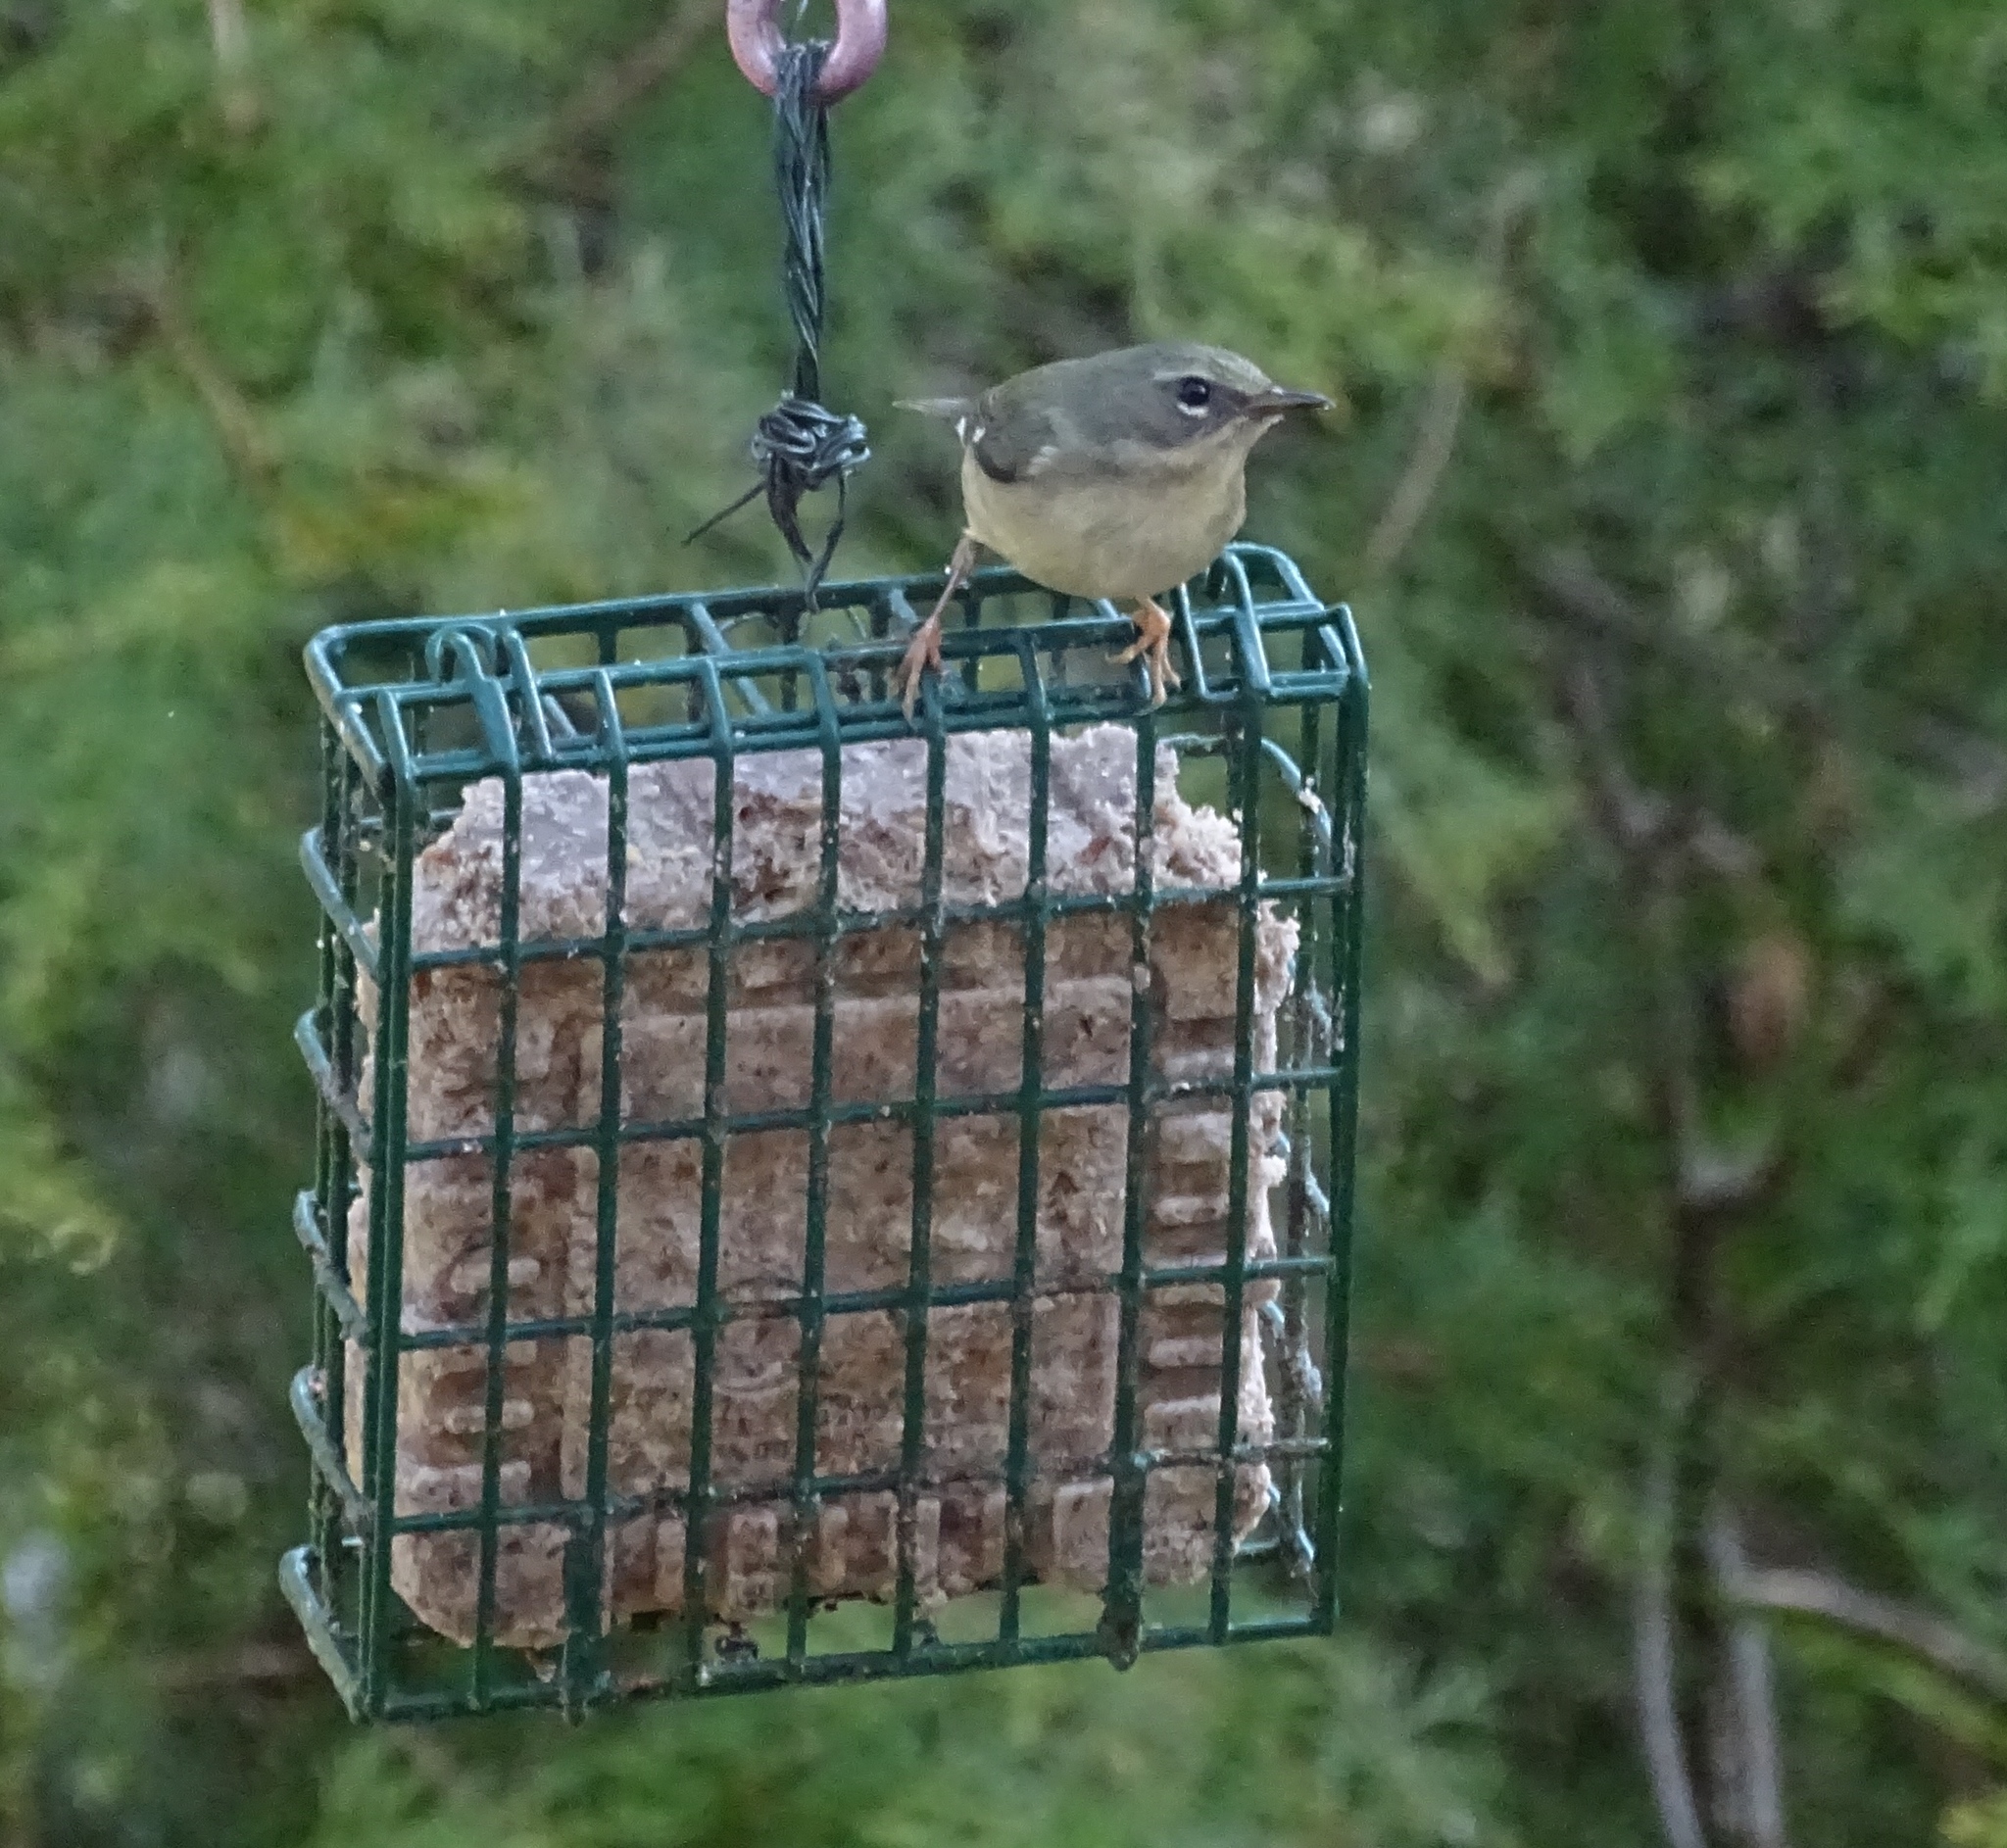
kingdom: Animalia
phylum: Chordata
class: Aves
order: Passeriformes
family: Parulidae
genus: Setophaga
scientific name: Setophaga caerulescens
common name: Black-throated blue warbler
